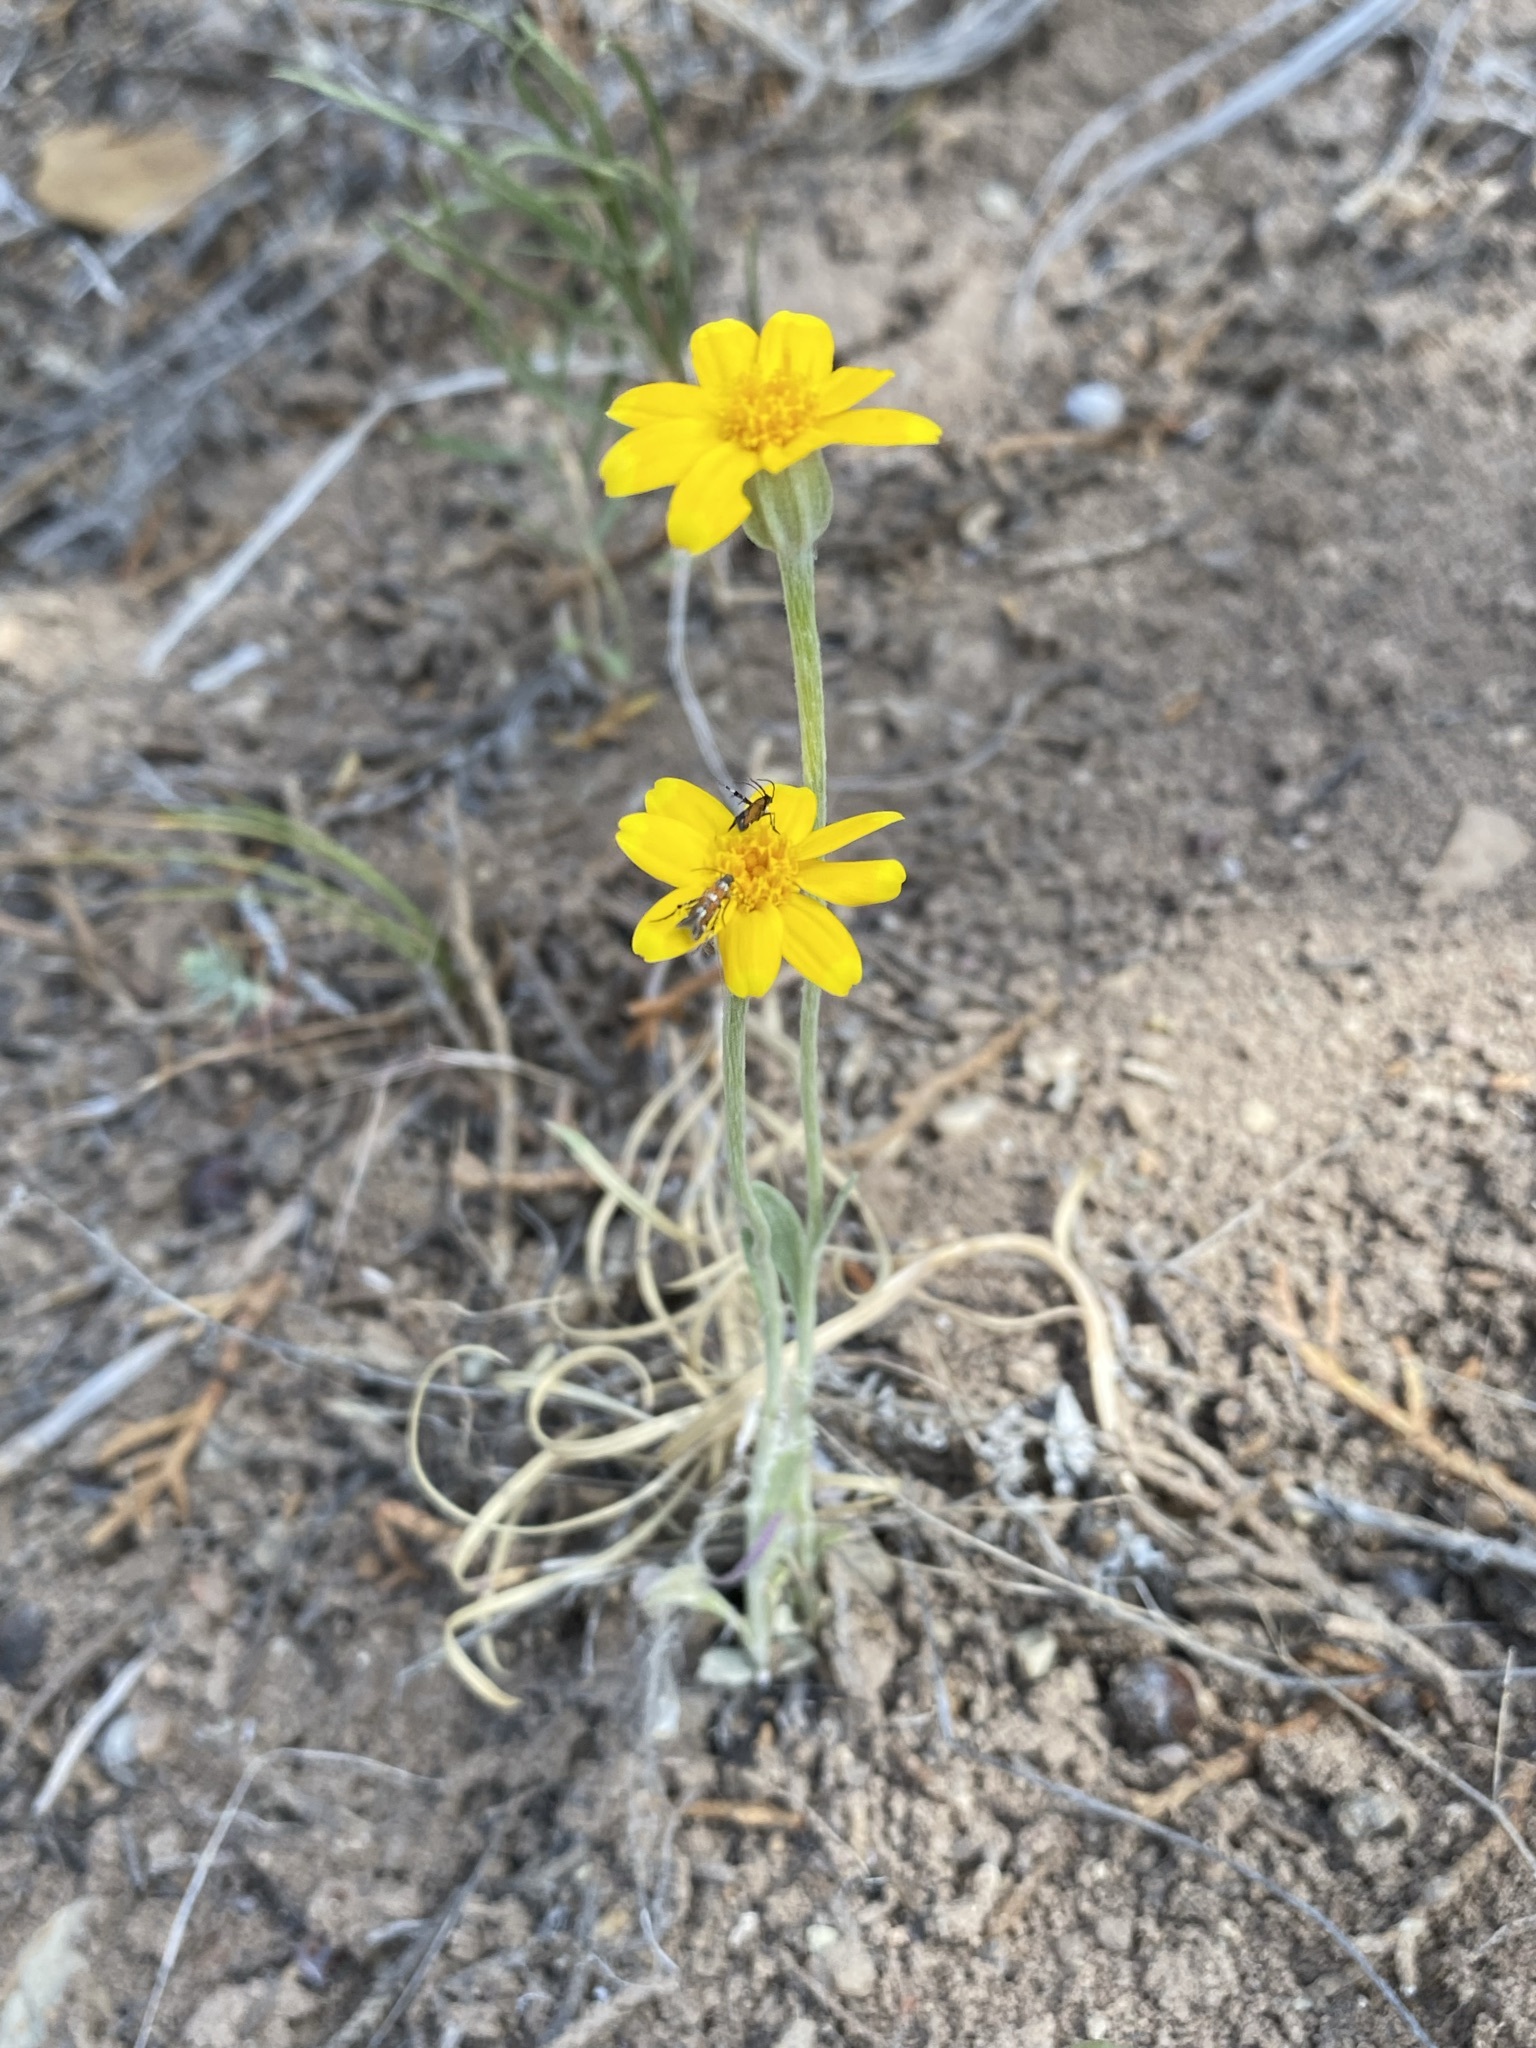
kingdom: Plantae
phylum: Tracheophyta
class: Magnoliopsida
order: Asterales
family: Asteraceae
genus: Eriophyllum
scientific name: Eriophyllum lanatum
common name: Common woolly-sunflower
